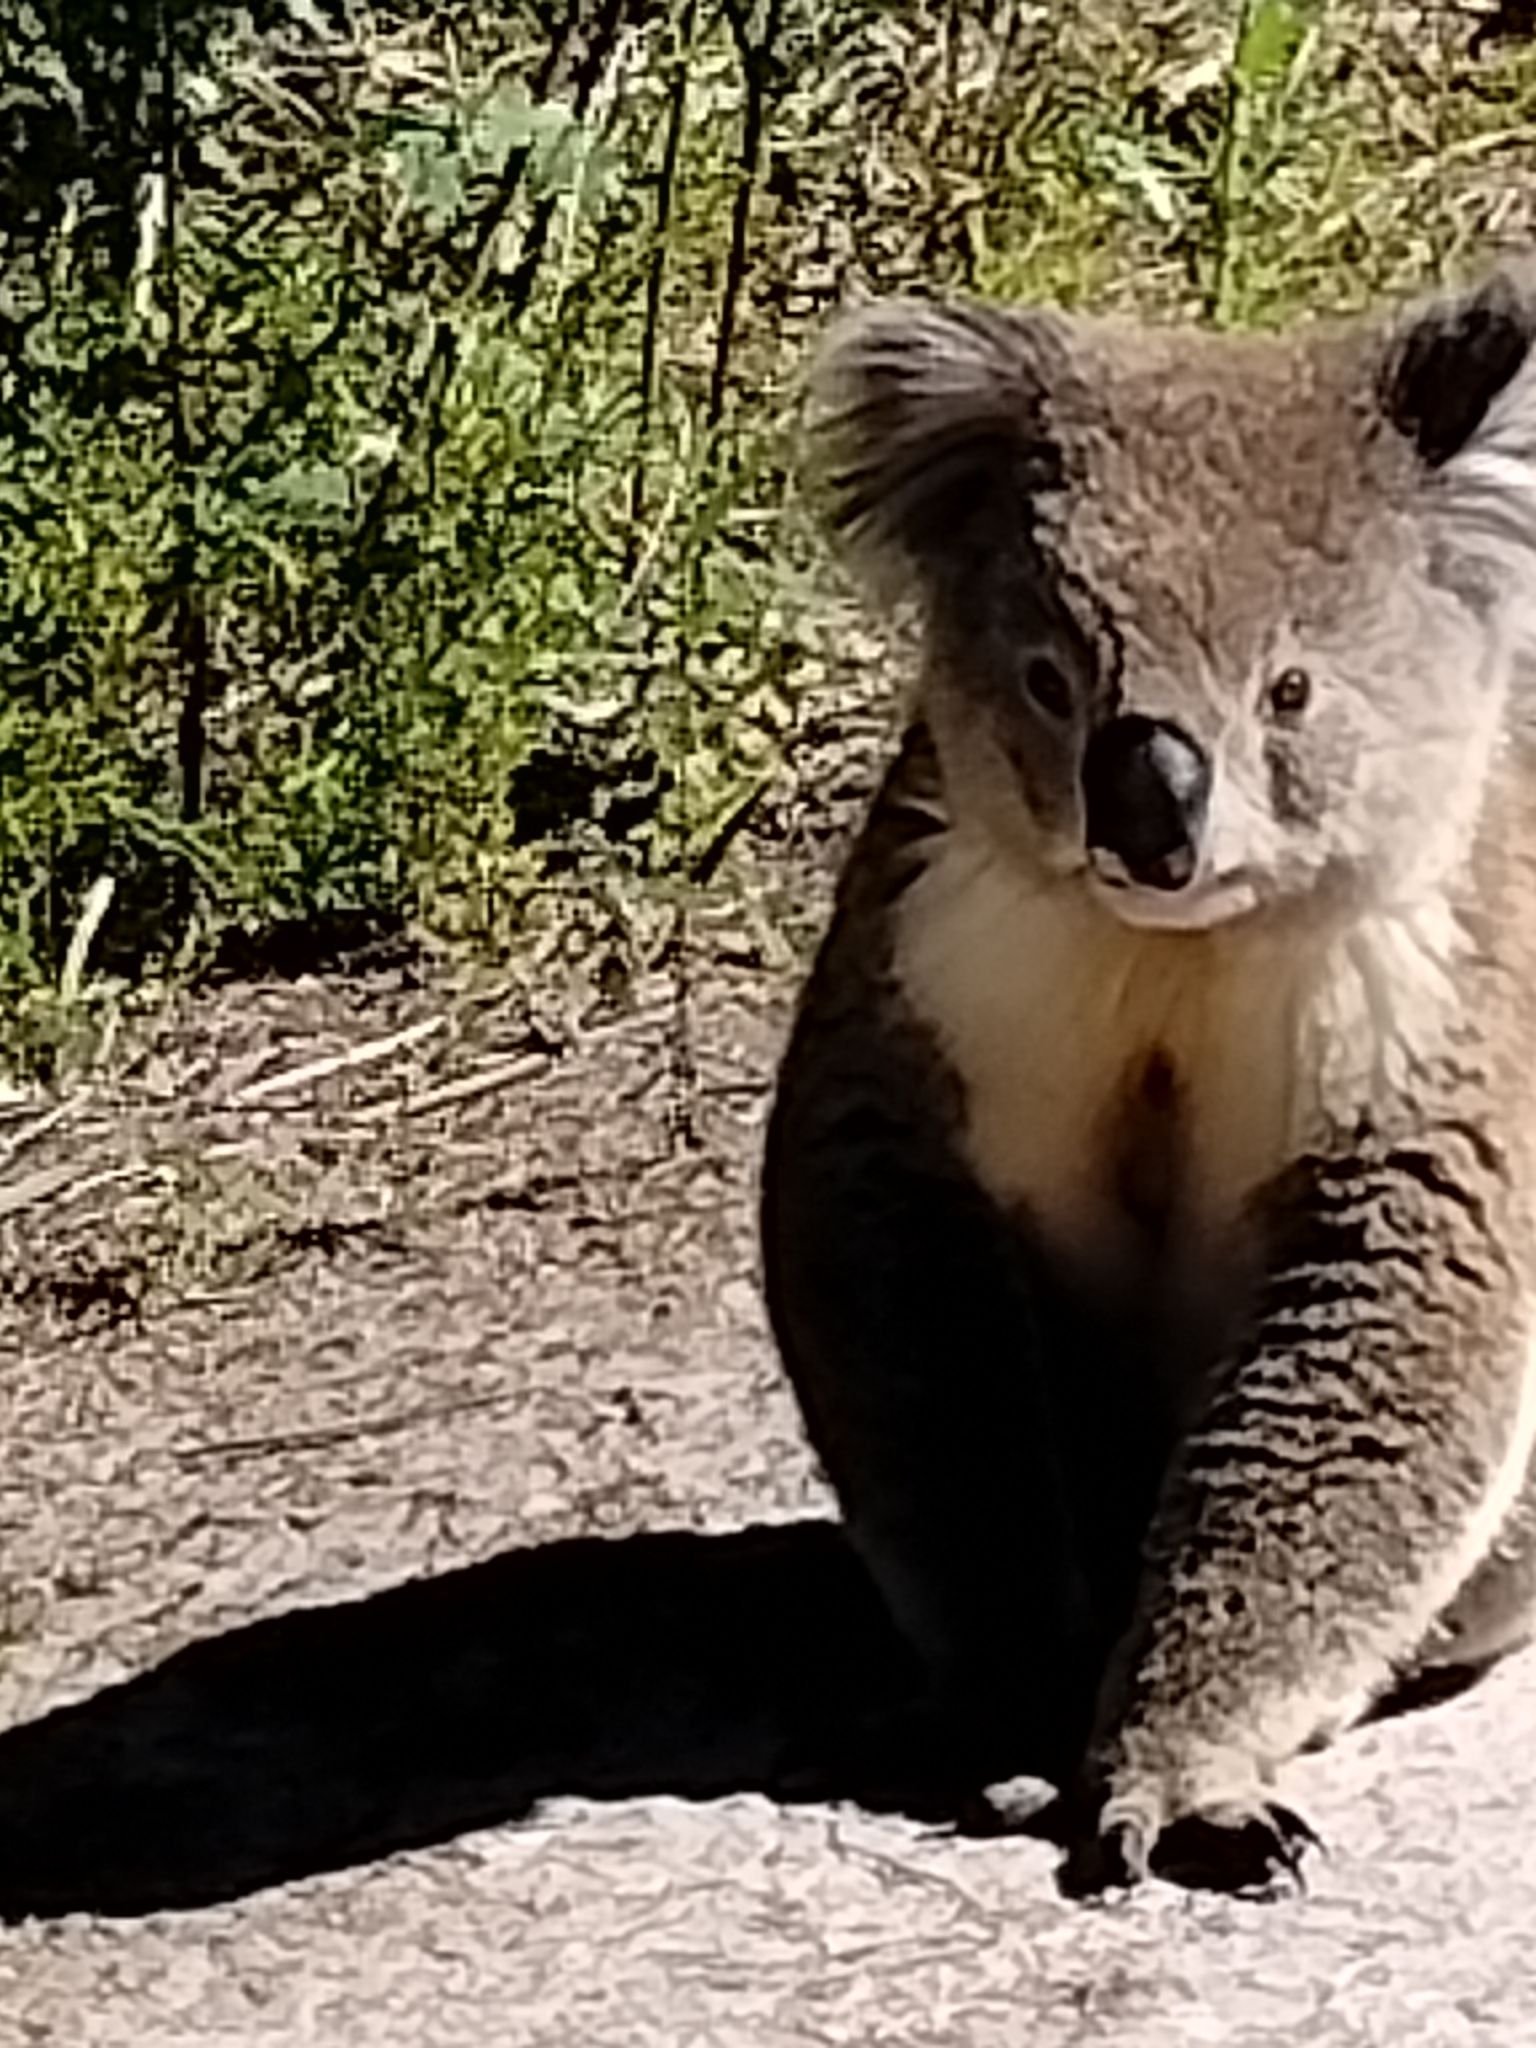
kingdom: Animalia
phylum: Chordata
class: Mammalia
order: Diprotodontia
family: Phascolarctidae
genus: Phascolarctos
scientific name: Phascolarctos cinereus
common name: Koala
